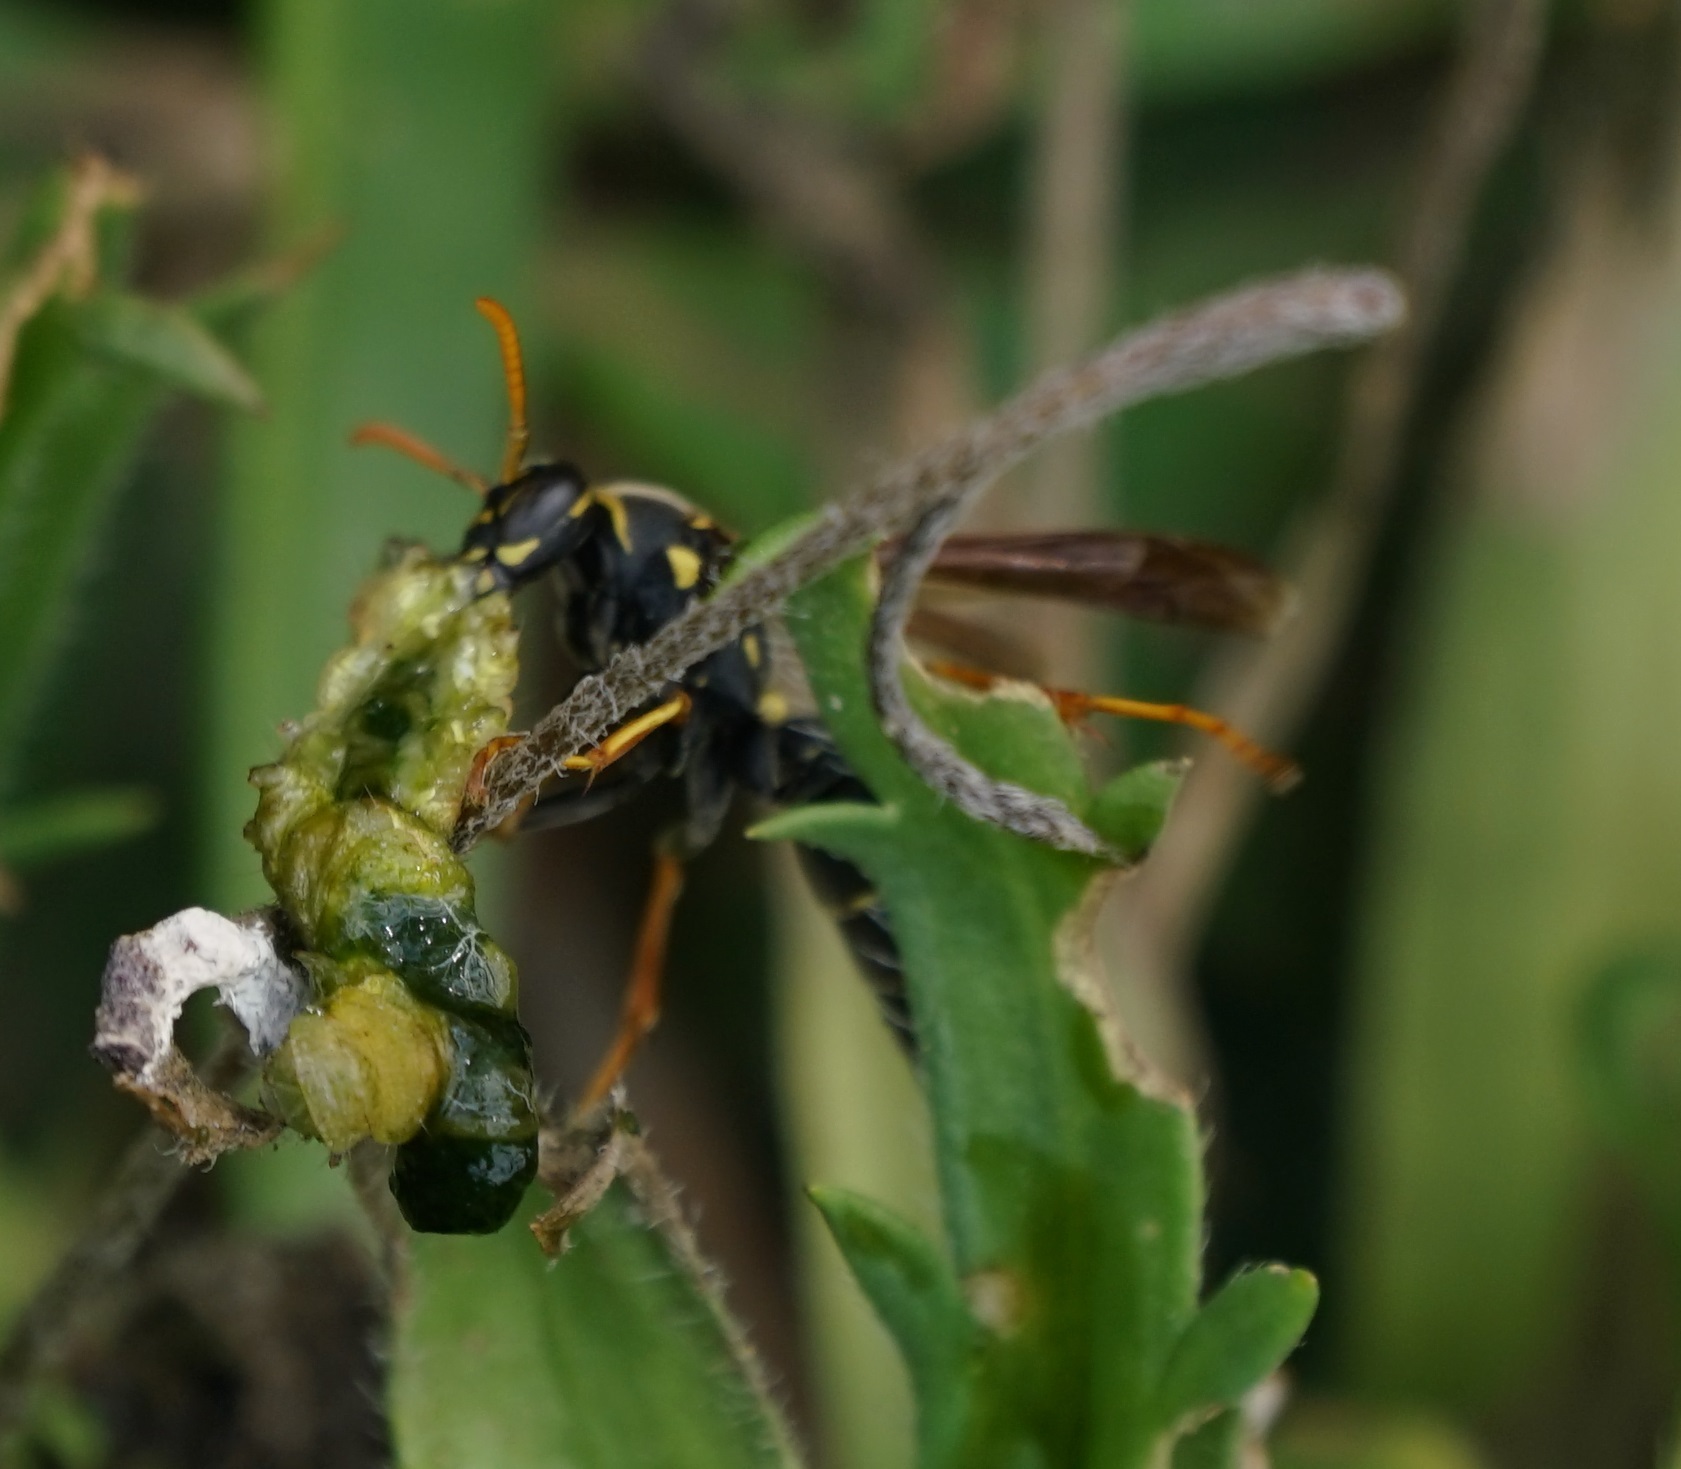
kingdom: Animalia
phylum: Arthropoda
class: Insecta
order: Hymenoptera
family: Eumenidae
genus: Polistes
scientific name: Polistes chinensis
